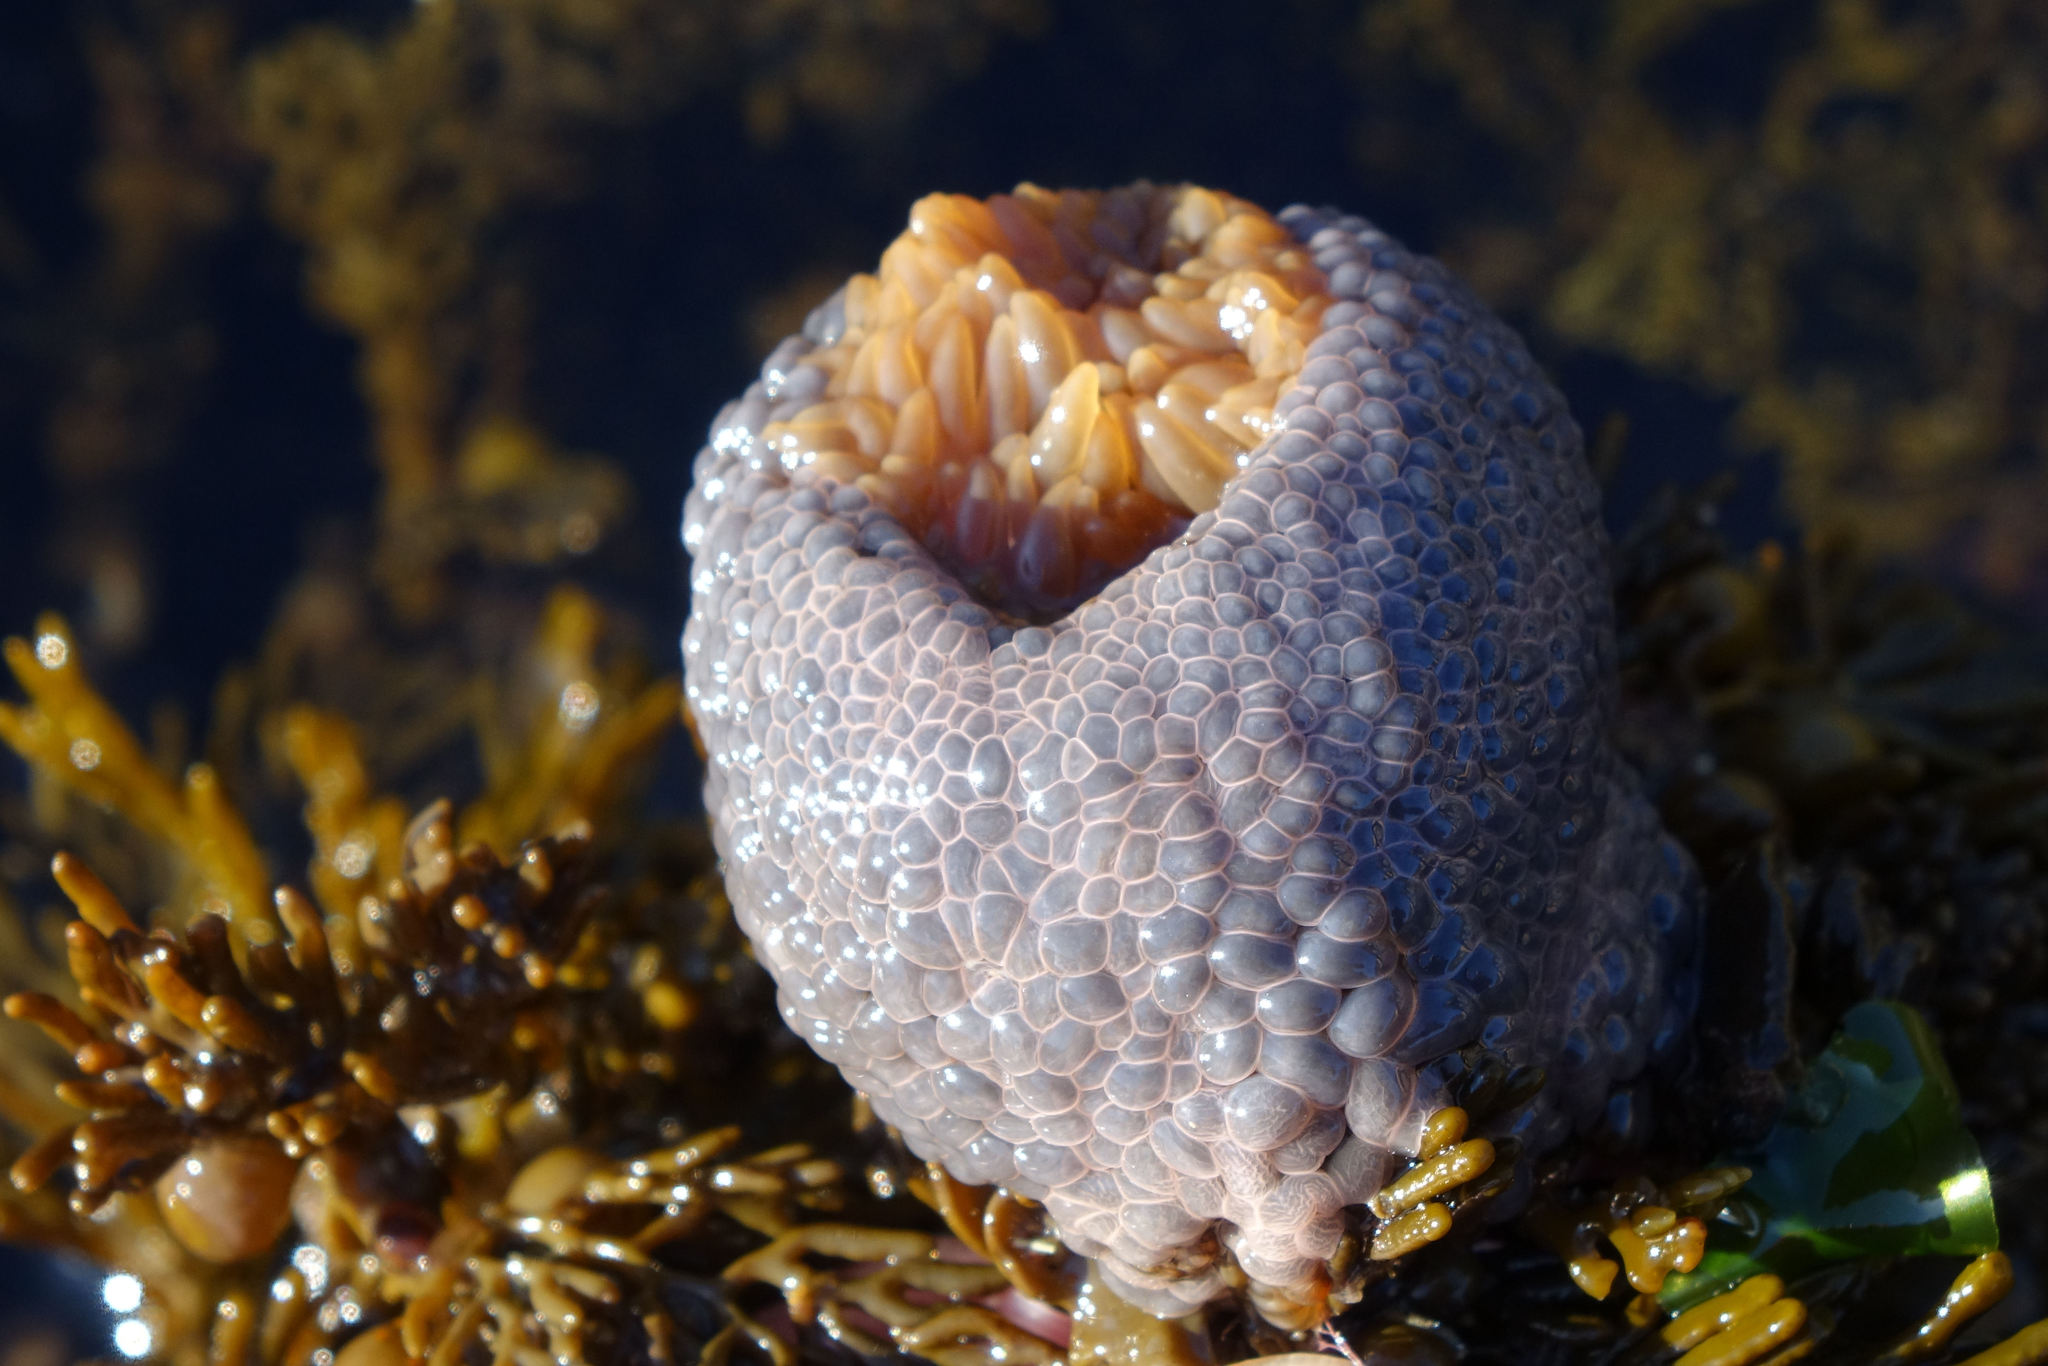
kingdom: Animalia
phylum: Cnidaria
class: Anthozoa
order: Actiniaria
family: Actiniidae
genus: Phlyctenactis
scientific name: Phlyctenactis tuberculosa
